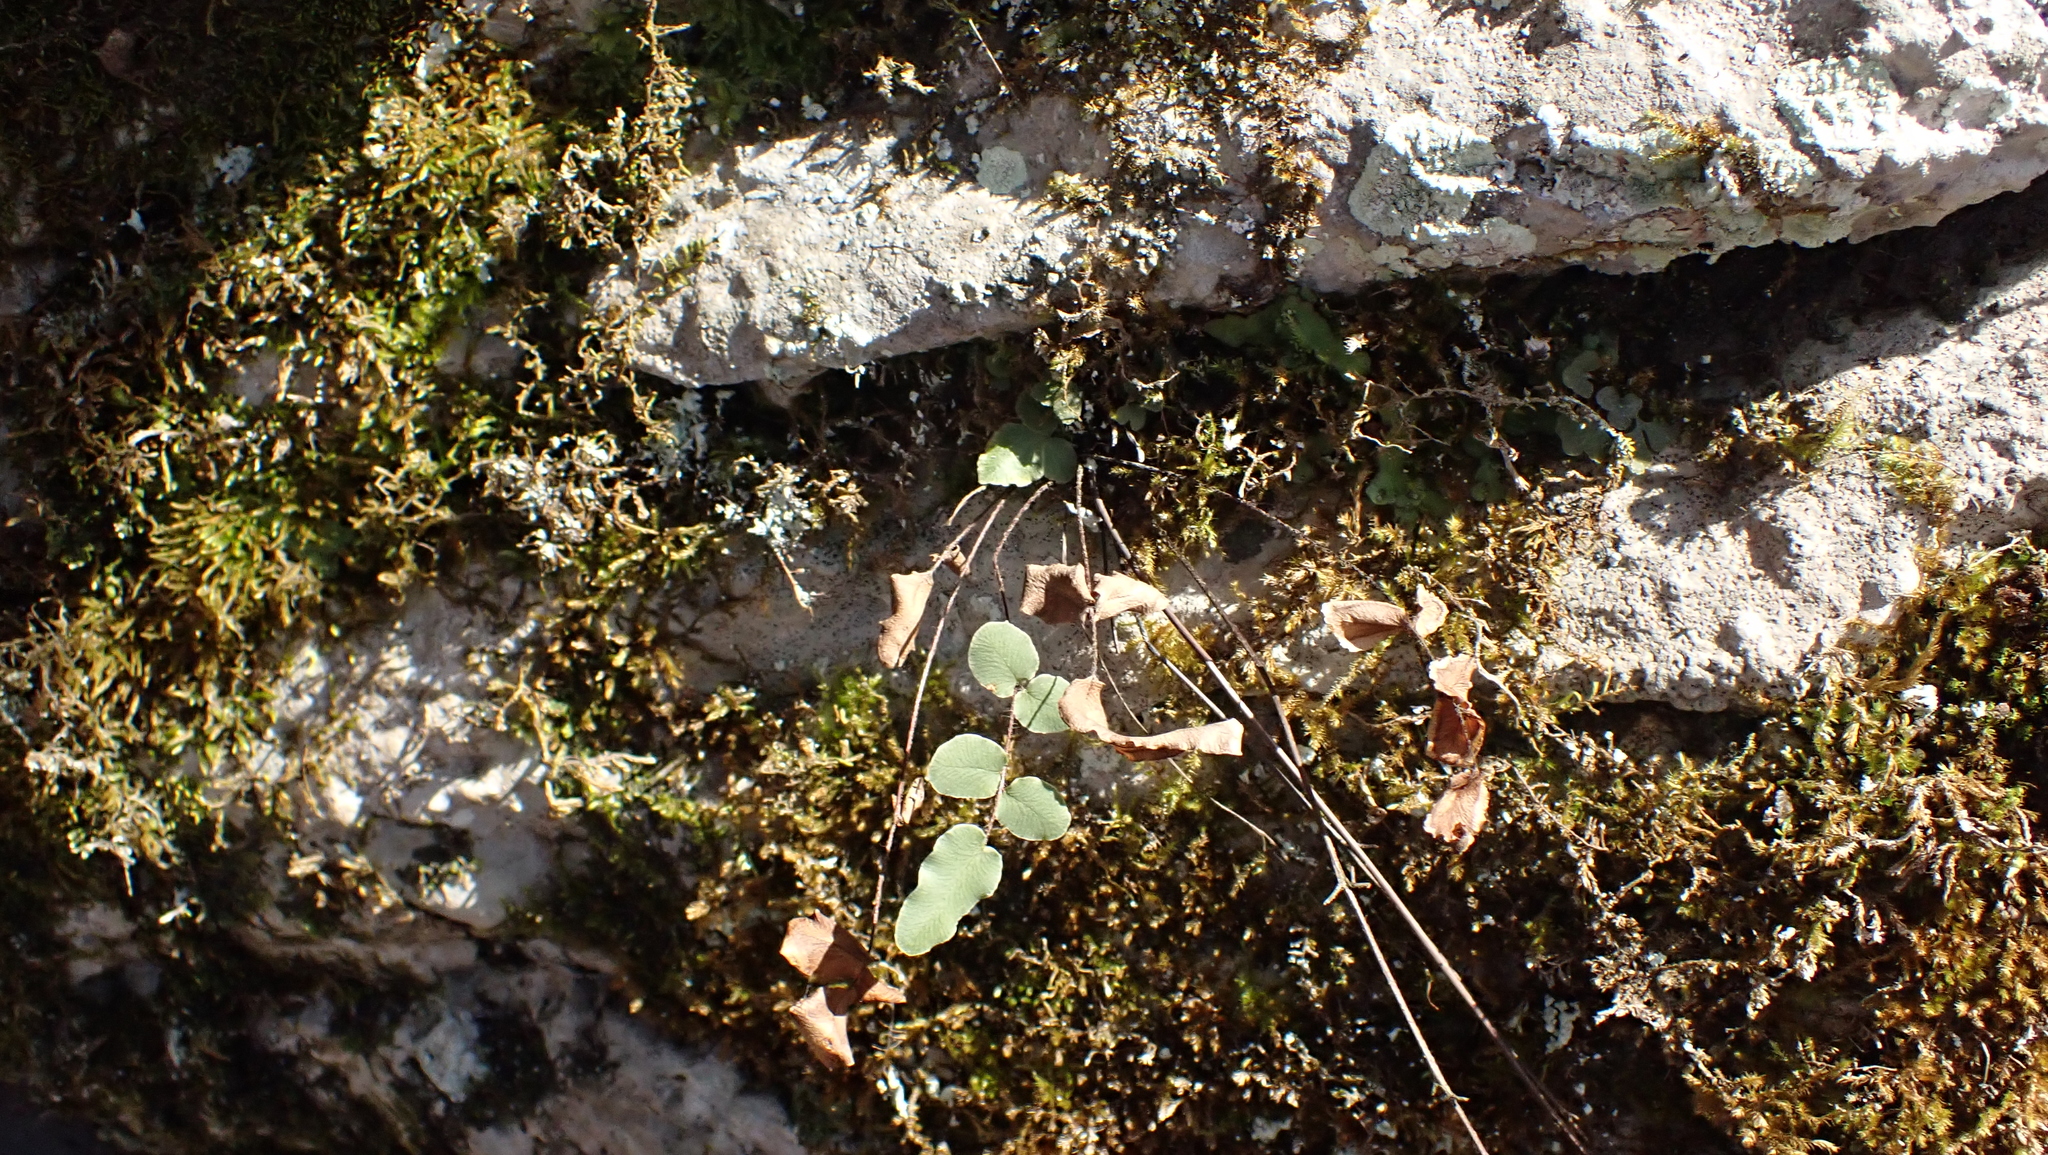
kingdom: Plantae
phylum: Tracheophyta
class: Polypodiopsida
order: Polypodiales
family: Pteridaceae
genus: Pellaea
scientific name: Pellaea atropurpurea
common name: Hairy cliffbrake
